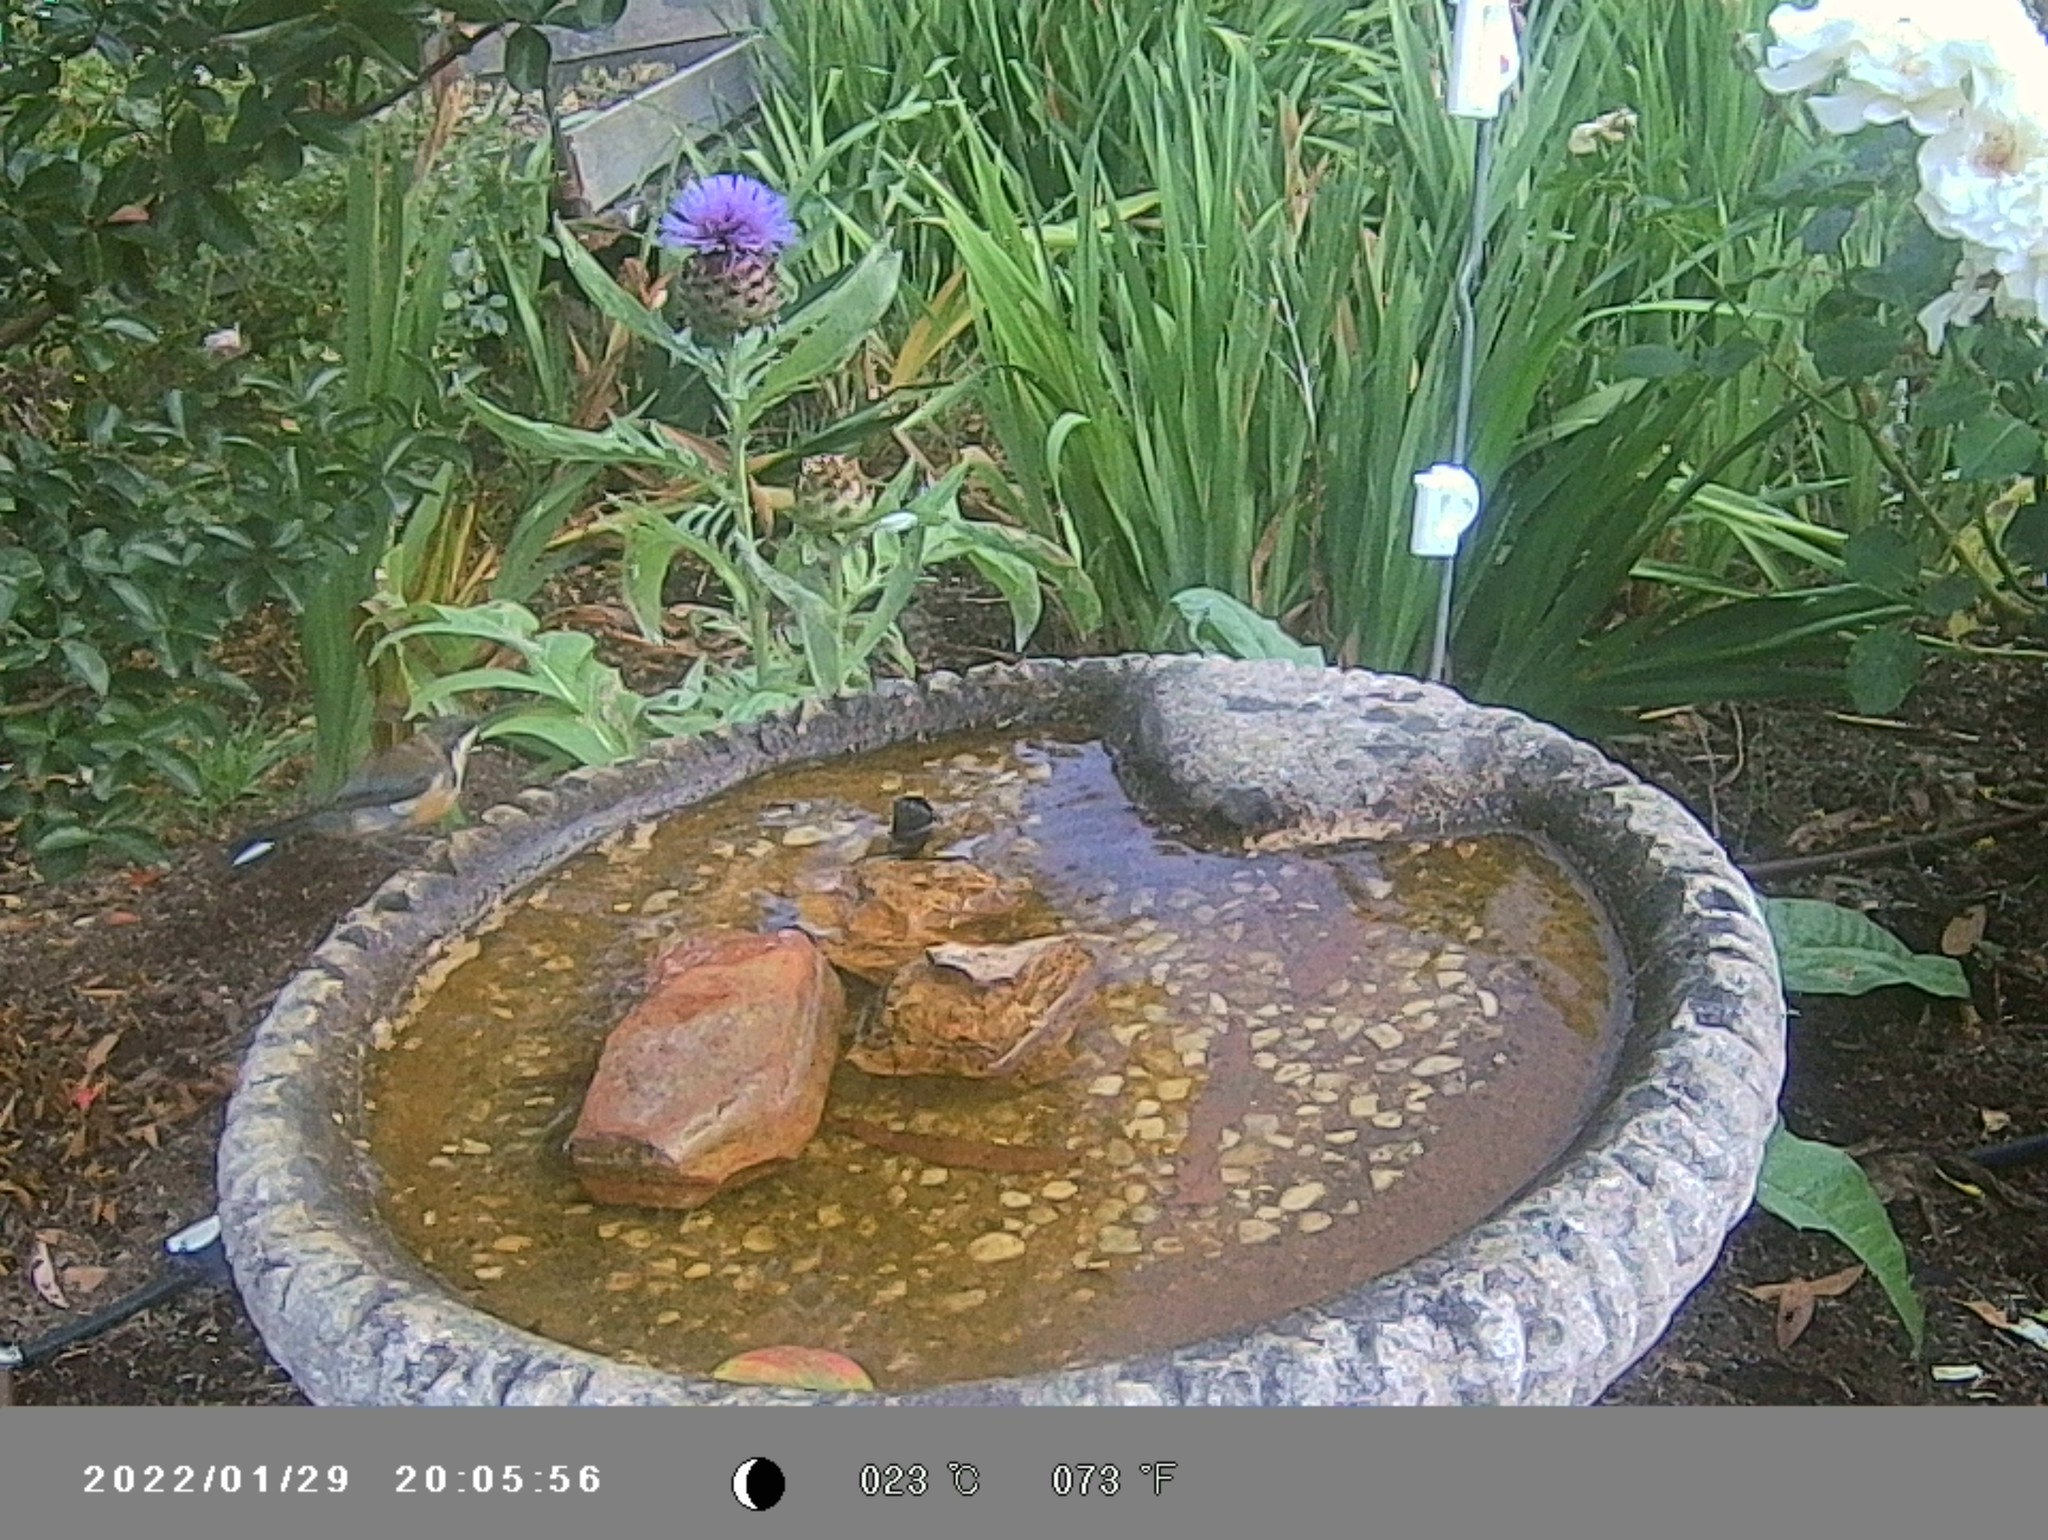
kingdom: Animalia
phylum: Chordata
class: Aves
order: Passeriformes
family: Meliphagidae
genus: Acanthorhynchus
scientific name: Acanthorhynchus tenuirostris
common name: Eastern spinebill
